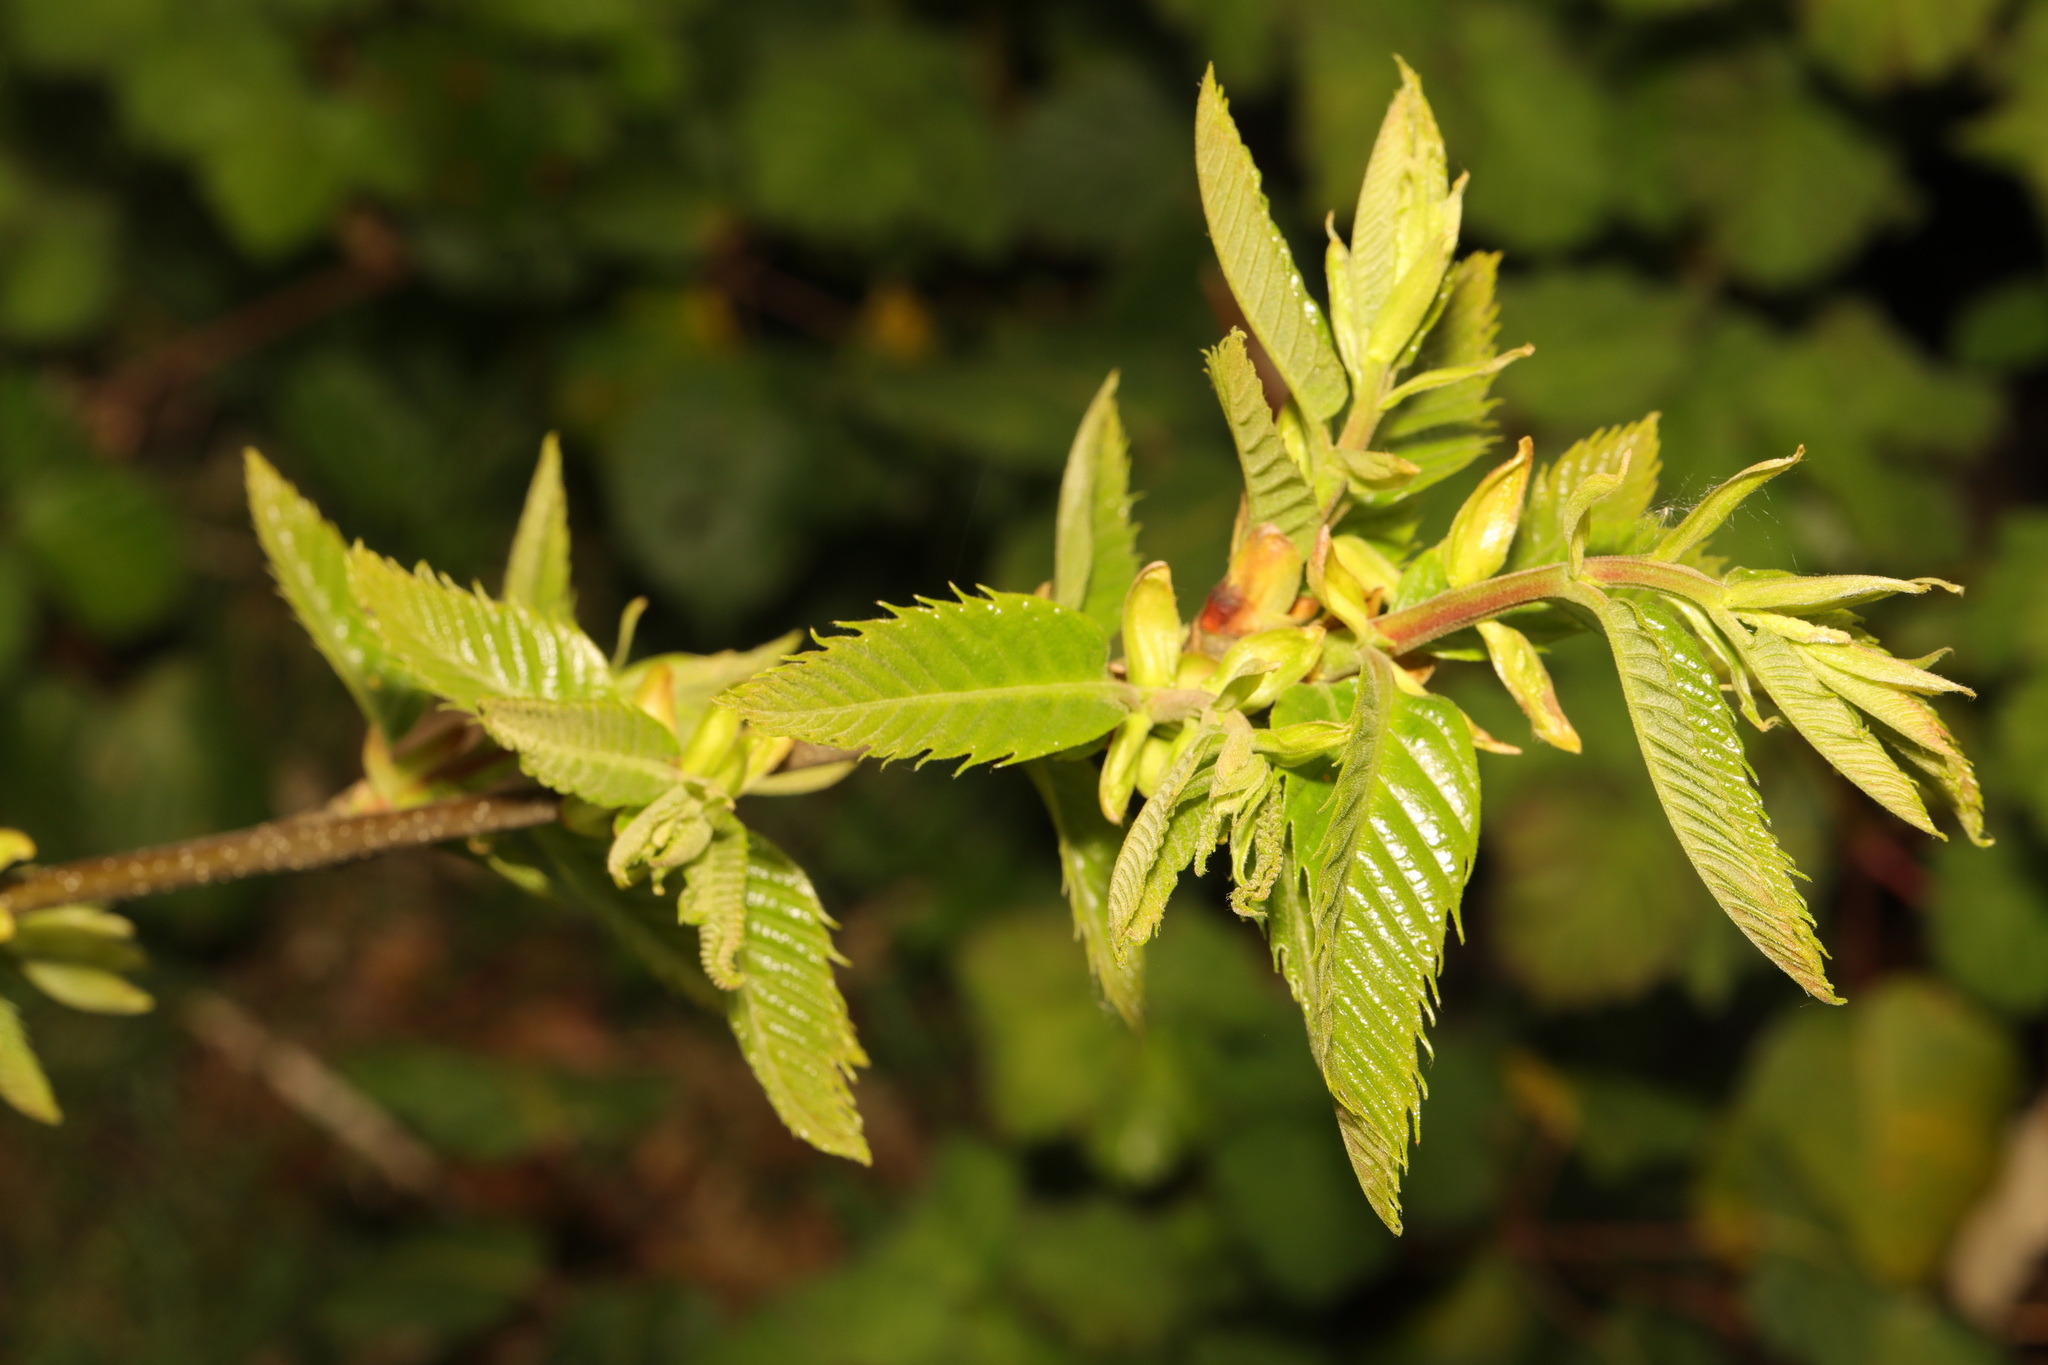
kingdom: Plantae
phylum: Tracheophyta
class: Magnoliopsida
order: Fagales
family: Fagaceae
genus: Castanea
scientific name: Castanea sativa
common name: Sweet chestnut
